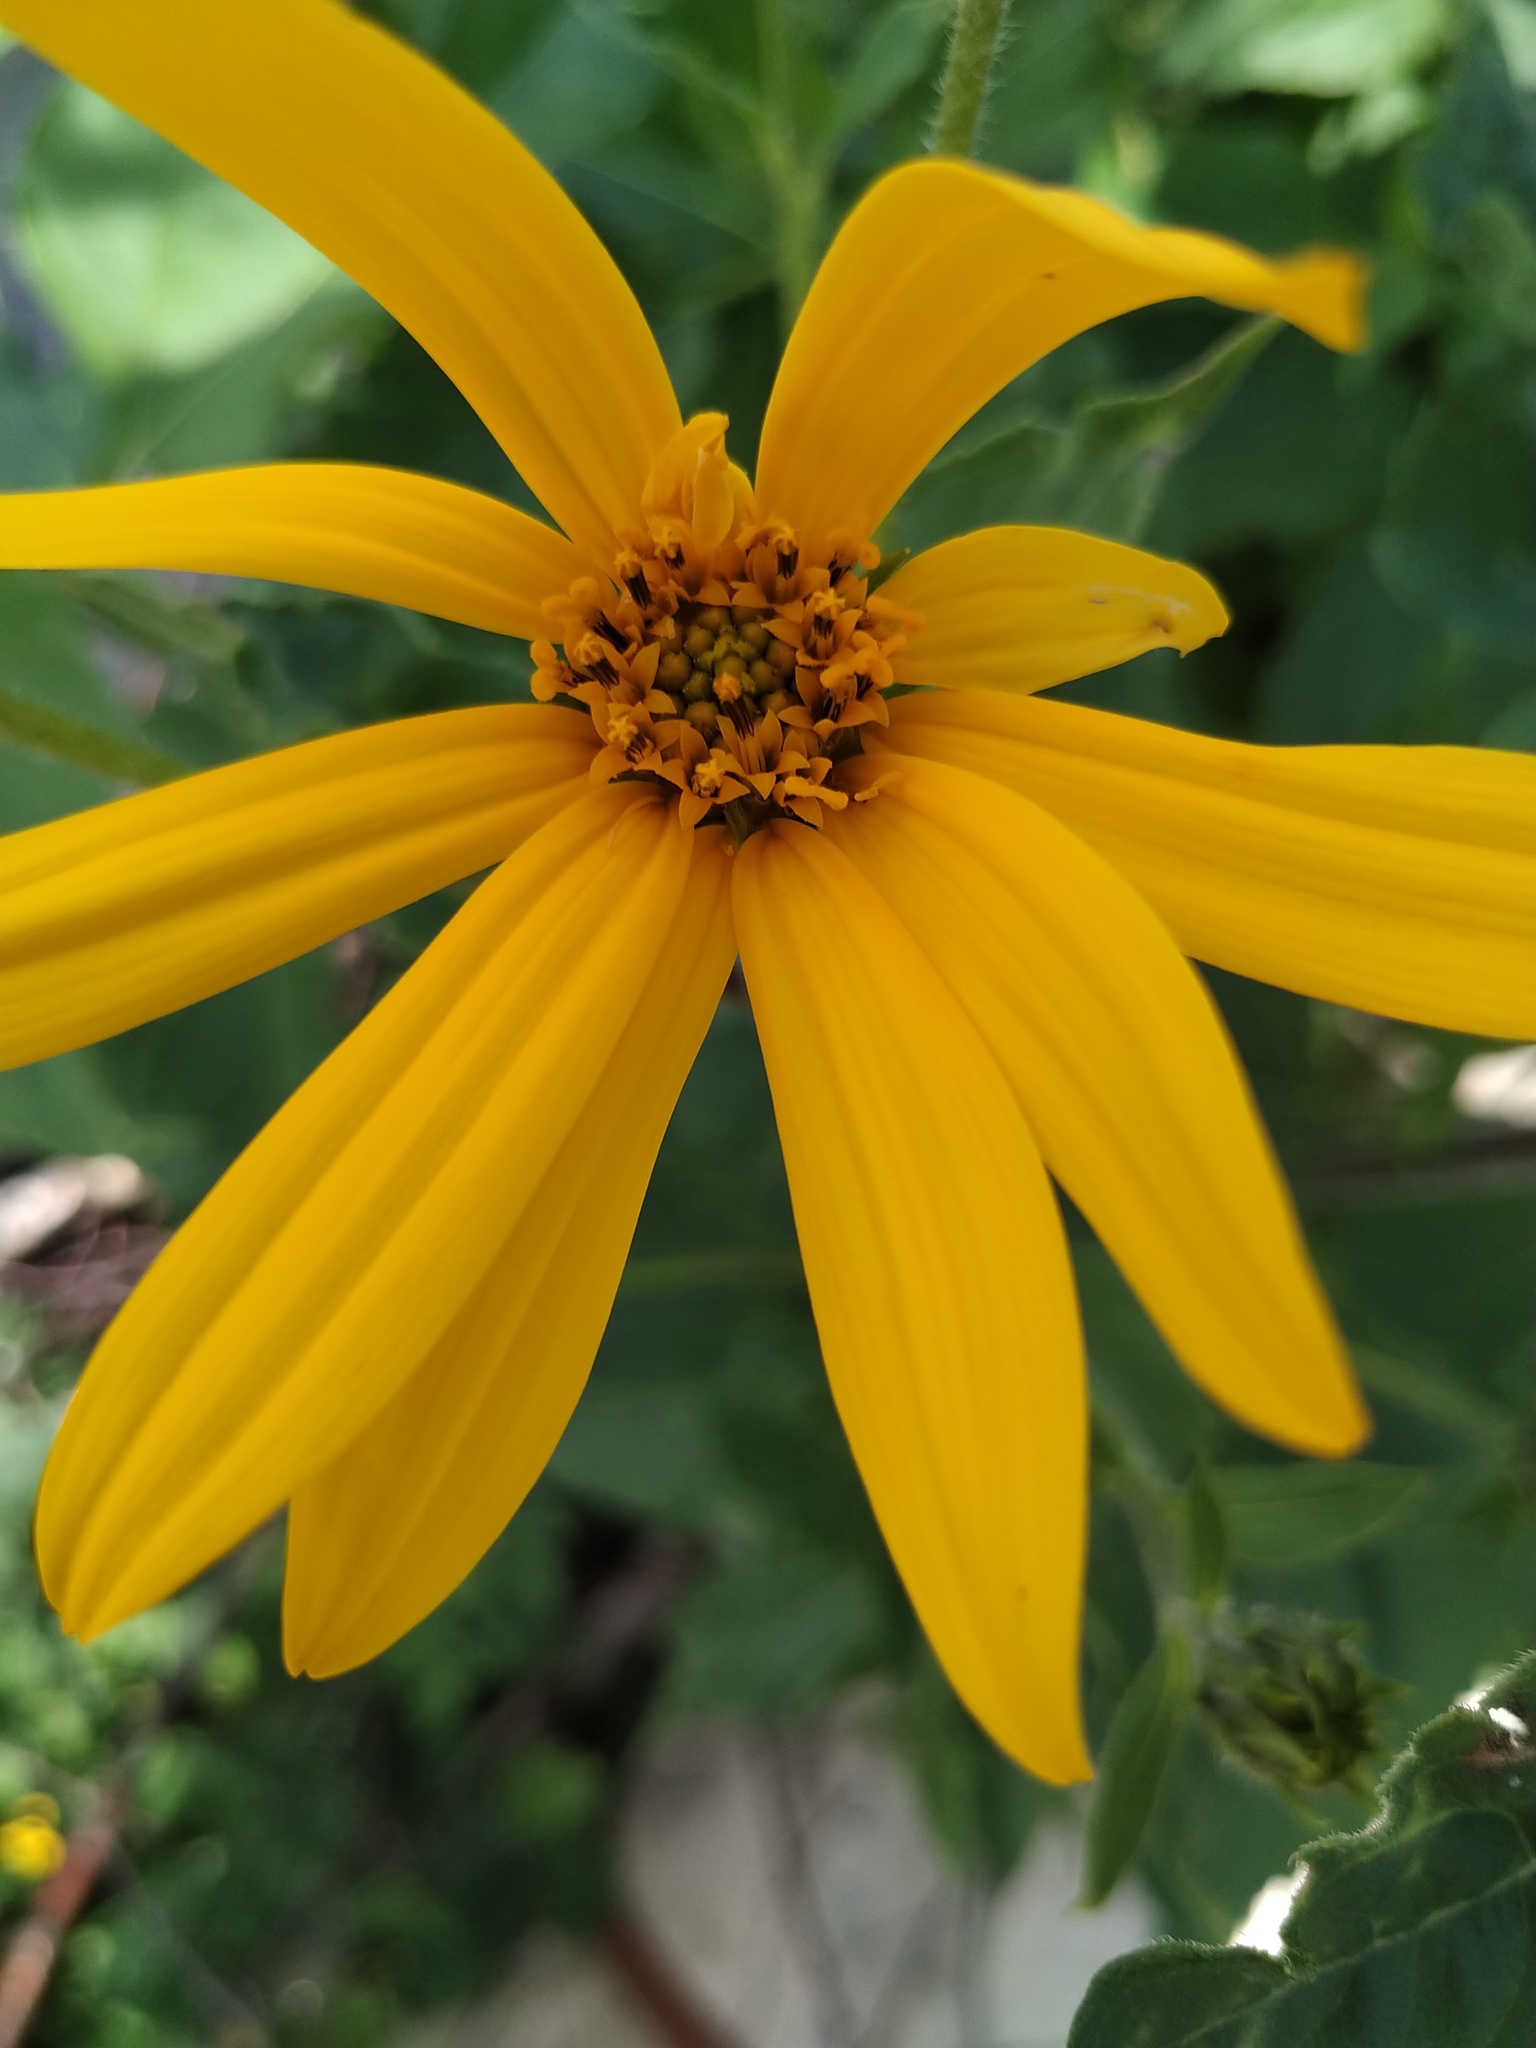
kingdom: Plantae
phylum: Tracheophyta
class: Magnoliopsida
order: Asterales
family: Asteraceae
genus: Helianthus
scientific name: Helianthus tuberosus
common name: Jerusalem artichoke
